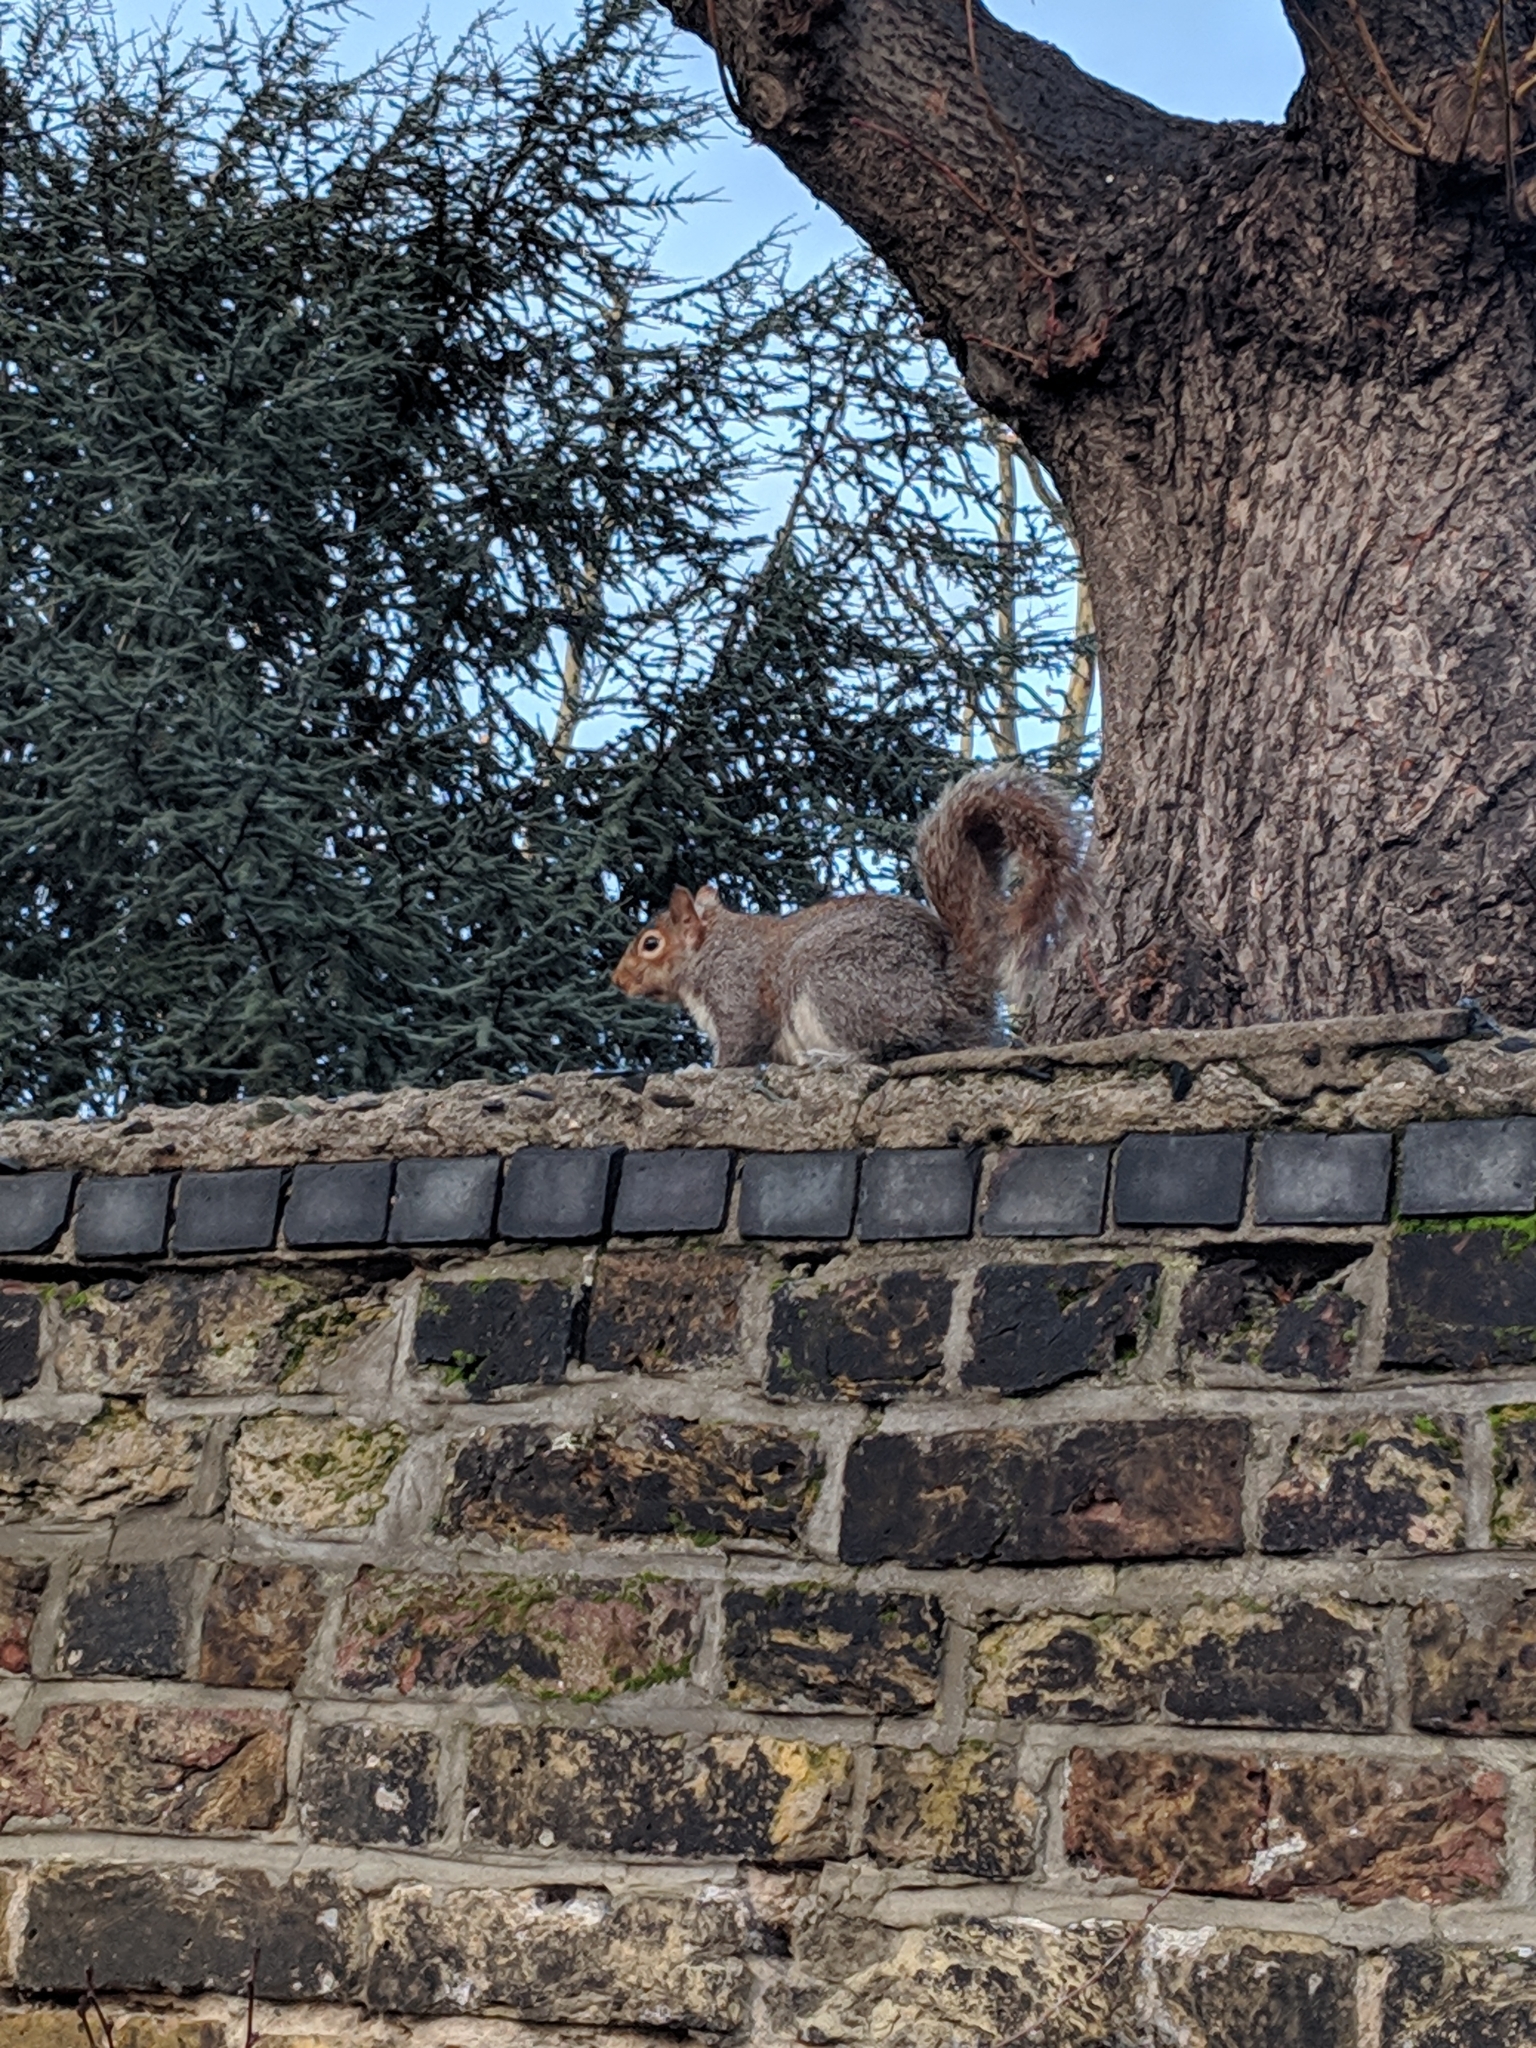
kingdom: Animalia
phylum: Chordata
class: Mammalia
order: Rodentia
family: Sciuridae
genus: Sciurus
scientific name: Sciurus carolinensis
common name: Eastern gray squirrel
